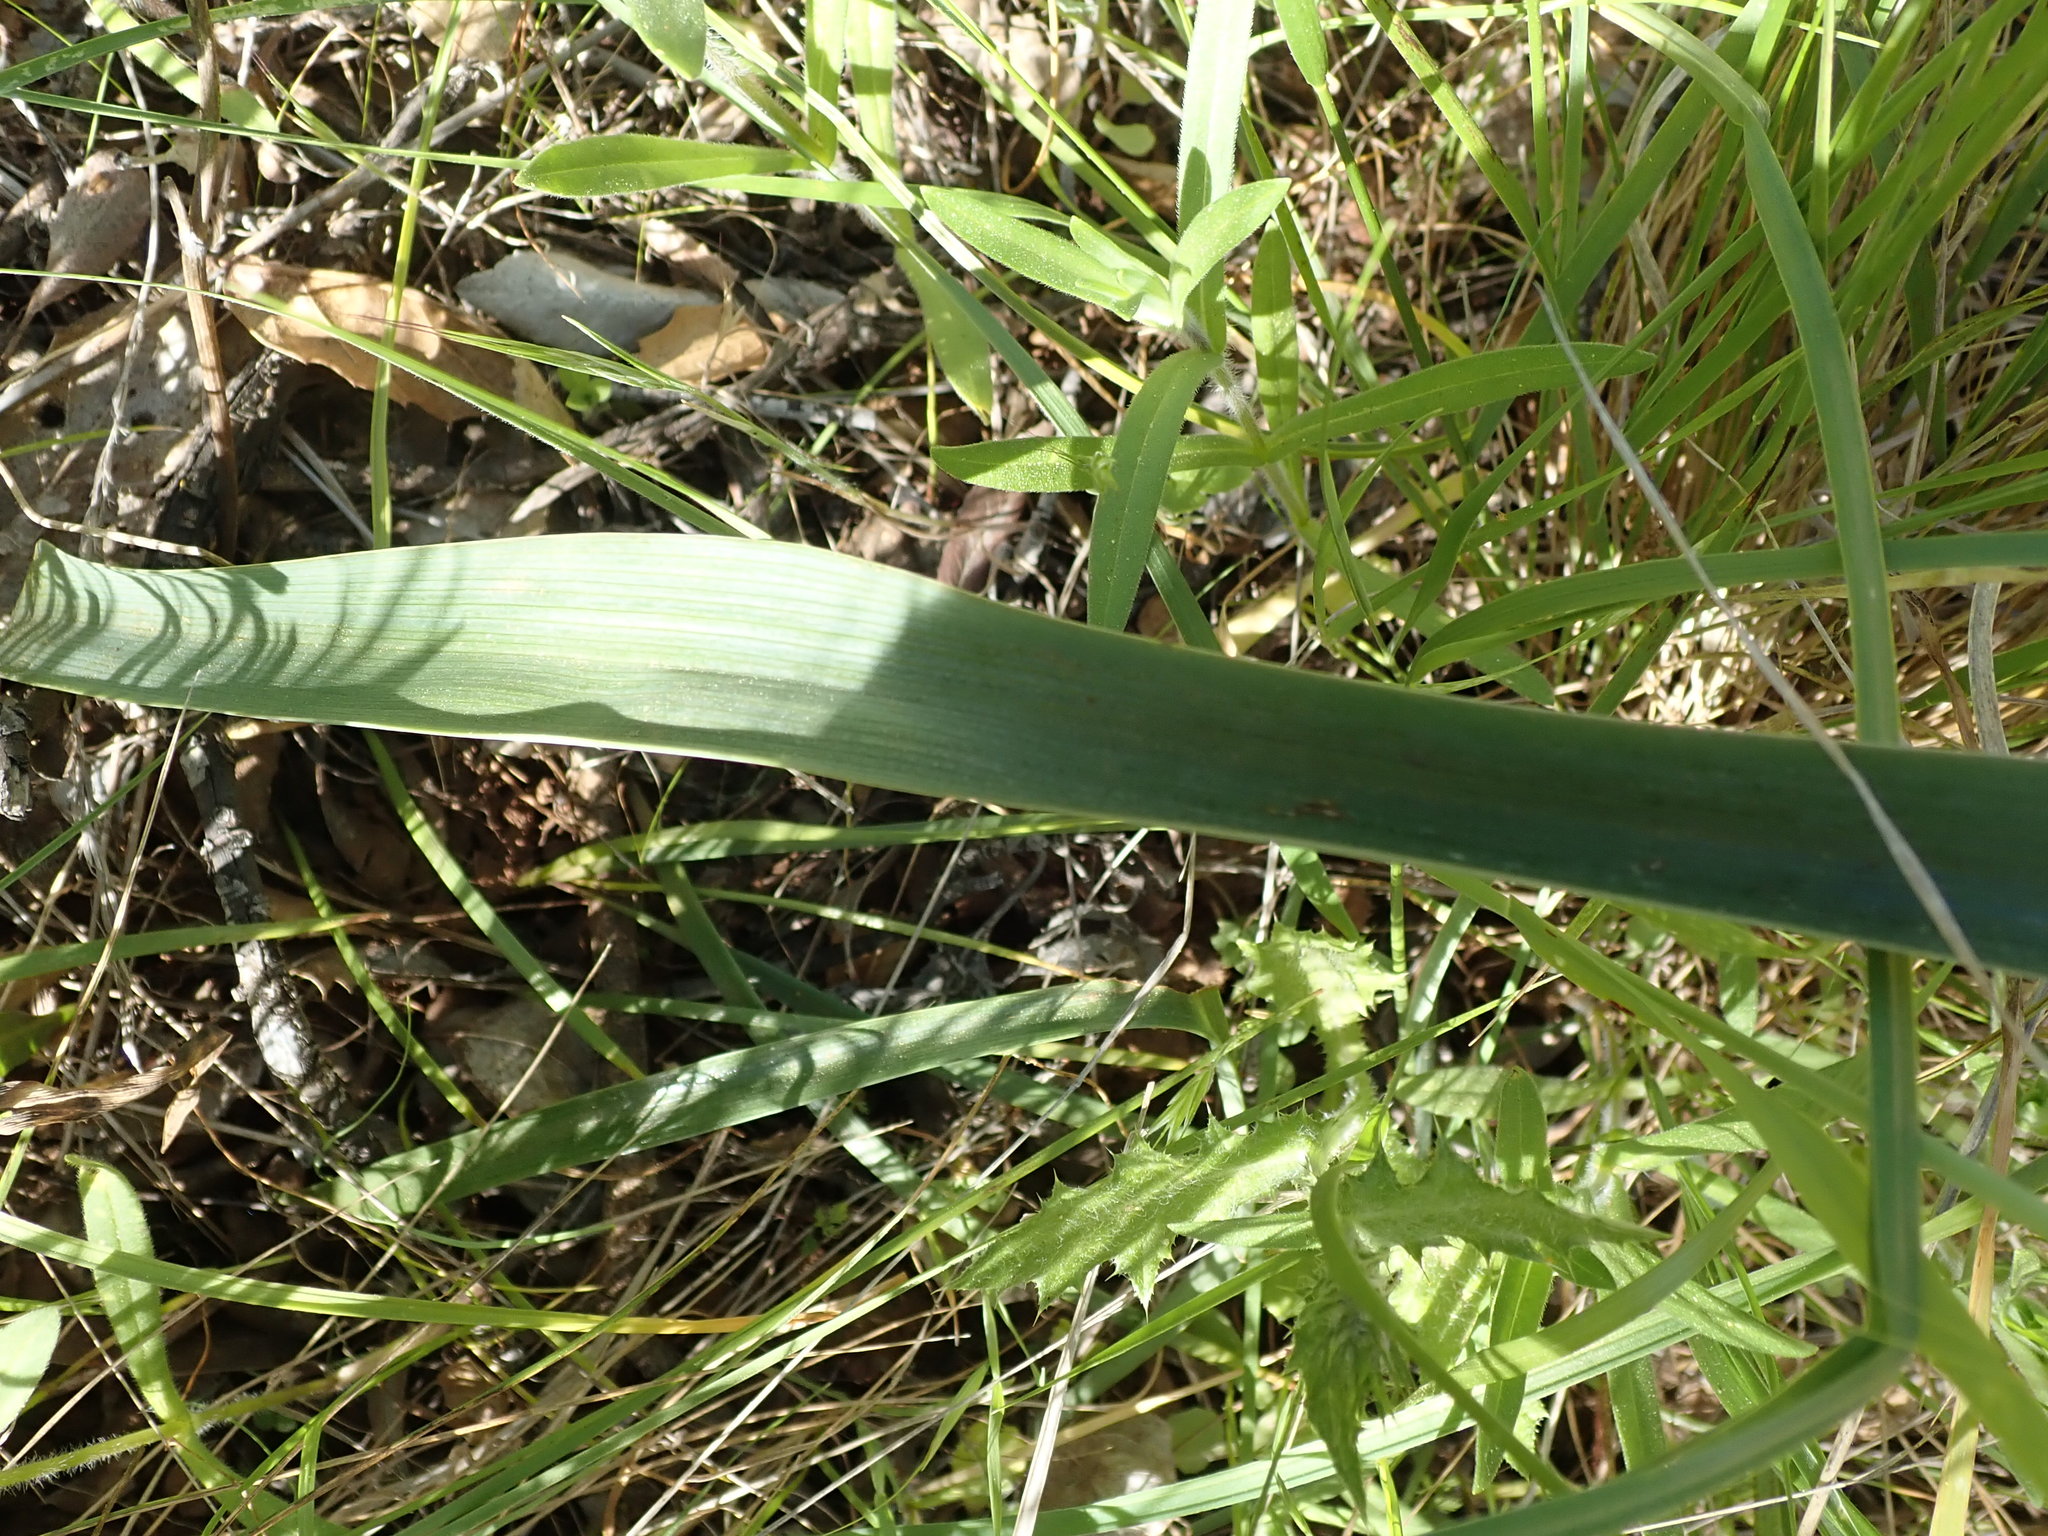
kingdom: Plantae
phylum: Tracheophyta
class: Liliopsida
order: Liliales
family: Liliaceae
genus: Calochortus
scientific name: Calochortus pulchellus
